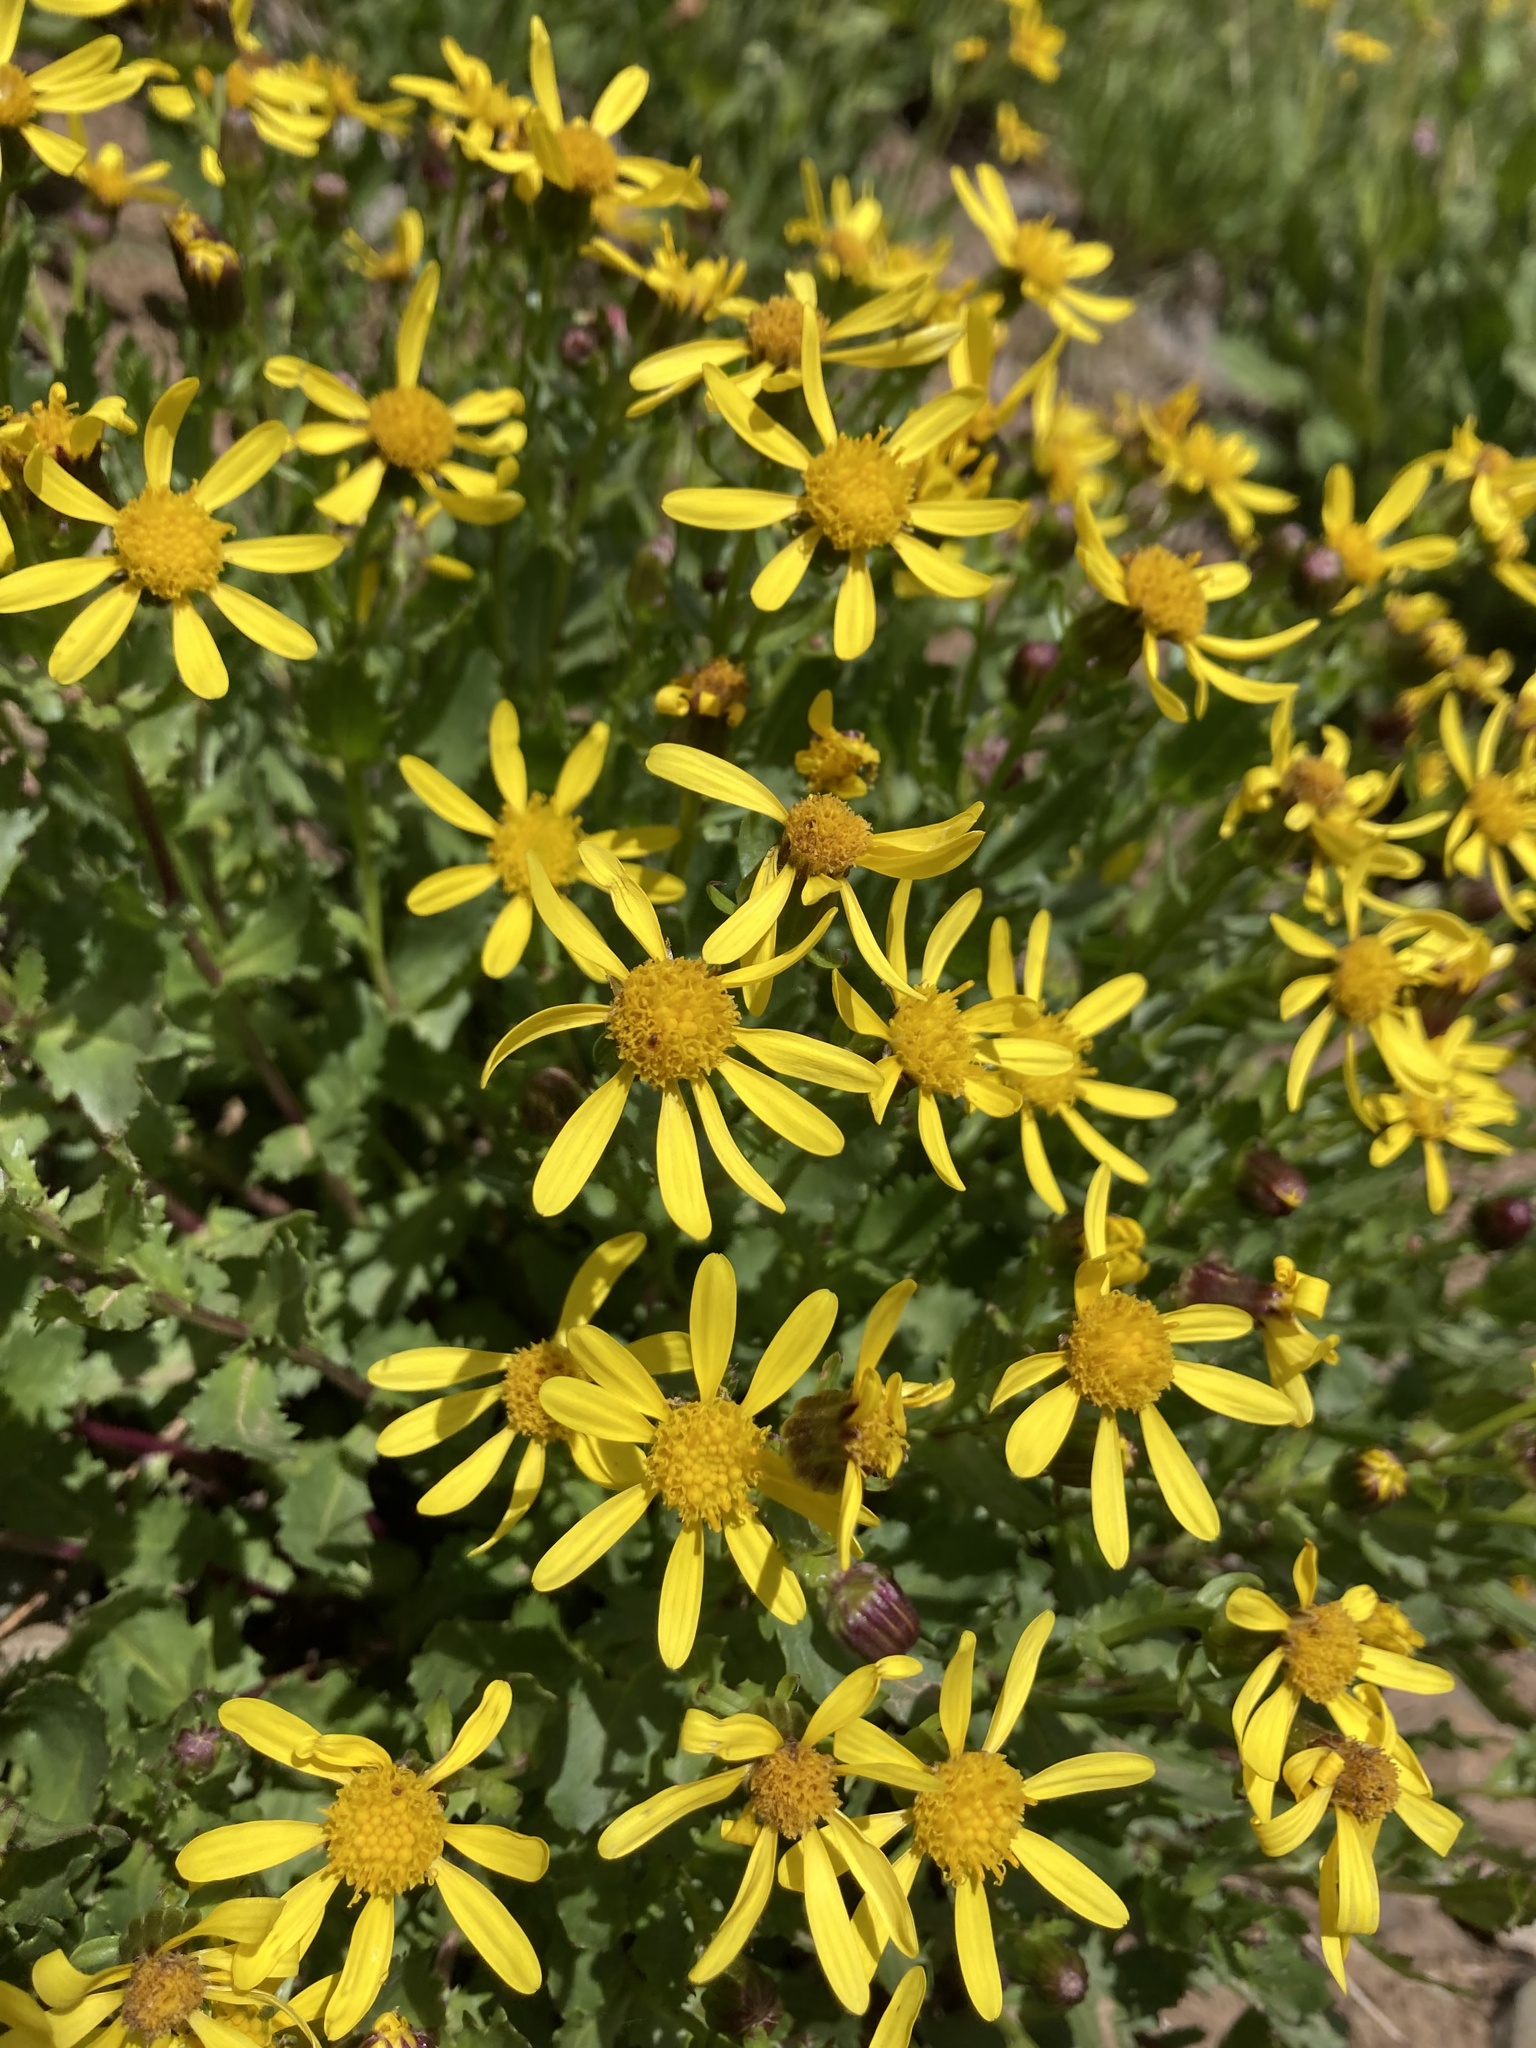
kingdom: Plantae
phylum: Tracheophyta
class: Magnoliopsida
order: Asterales
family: Asteraceae
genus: Senecio
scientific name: Senecio fremontii
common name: Fremont's groundsel
